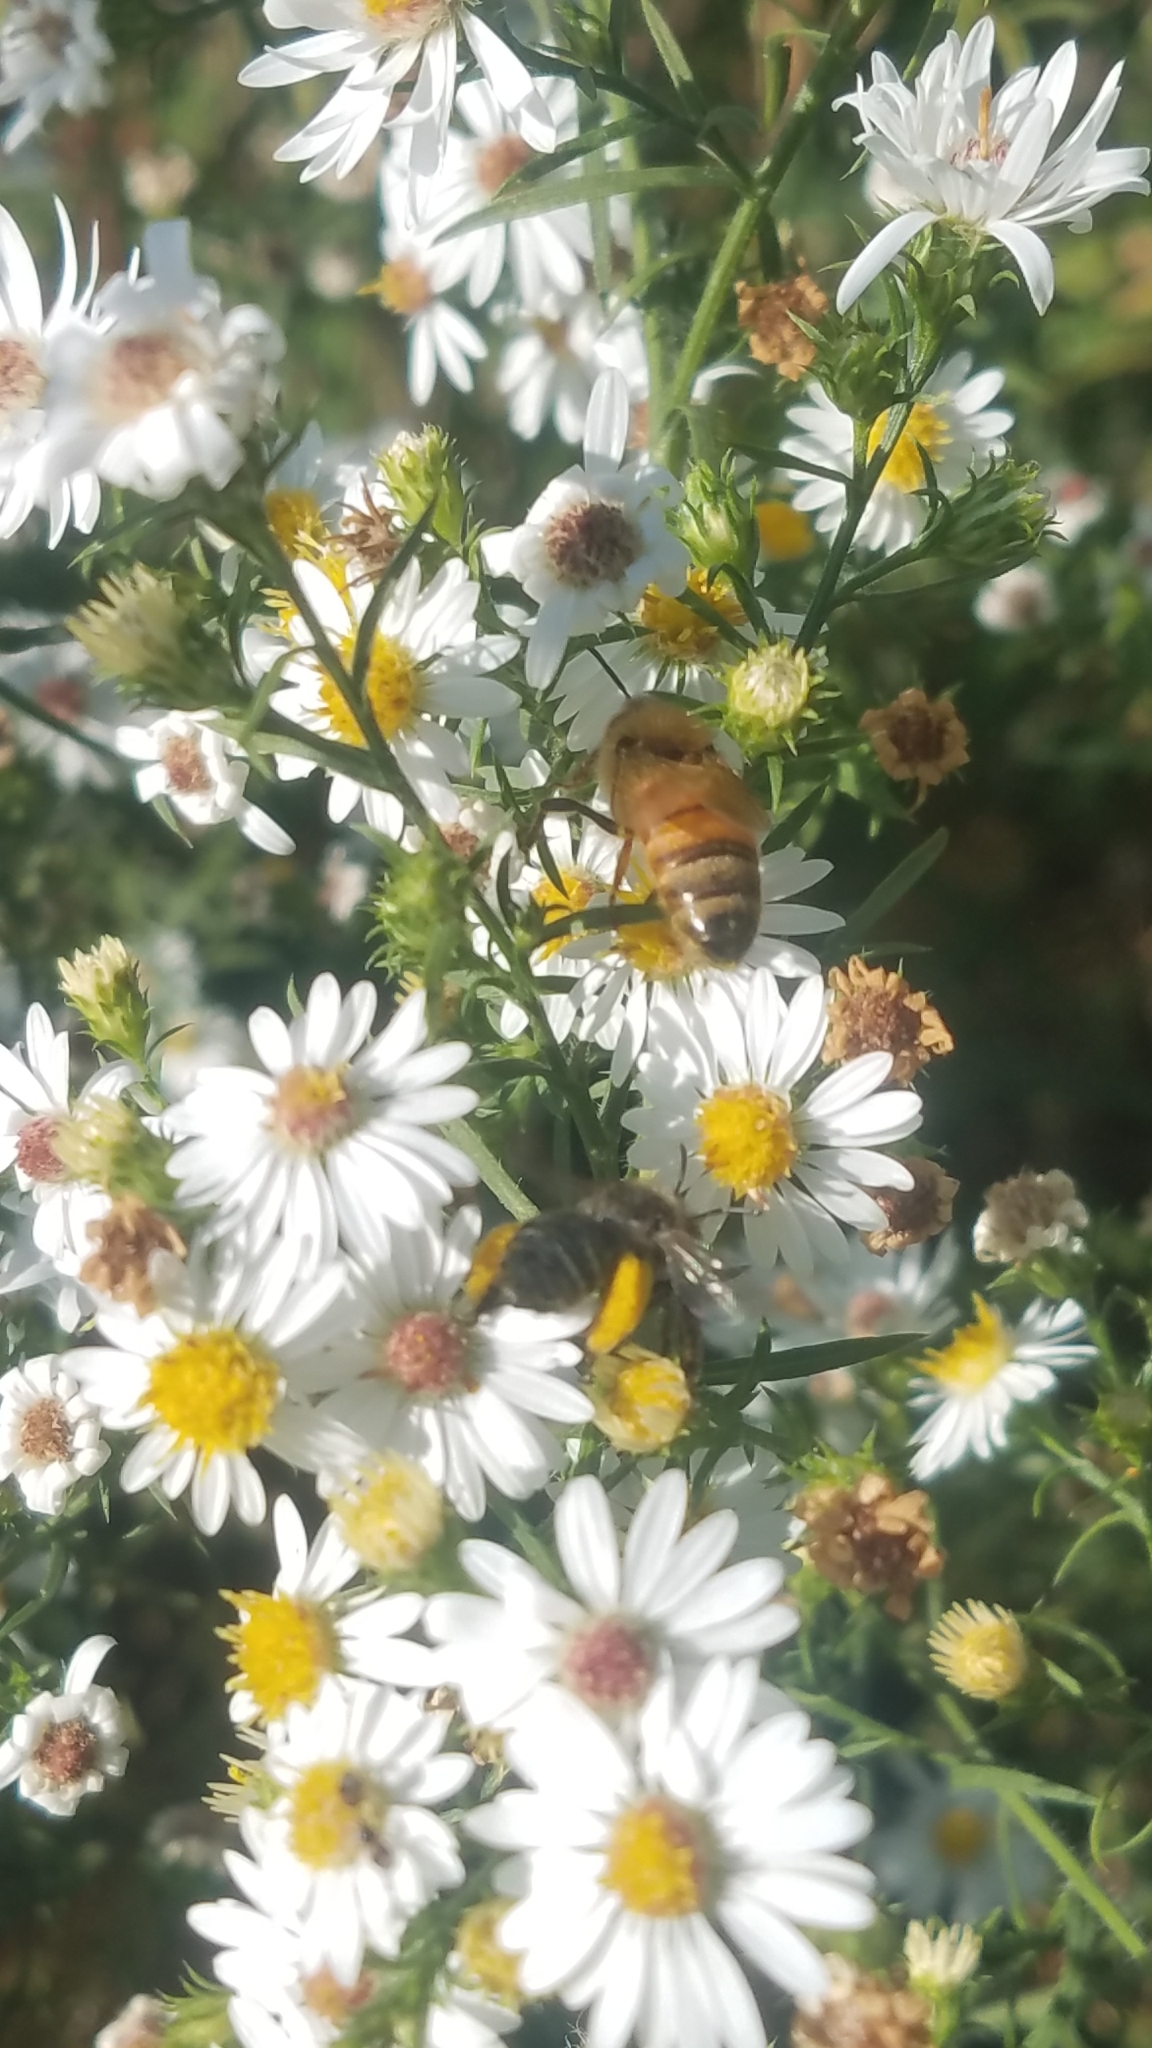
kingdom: Animalia
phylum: Arthropoda
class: Insecta
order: Hymenoptera
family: Apidae
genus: Apis
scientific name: Apis mellifera
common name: Honey bee
